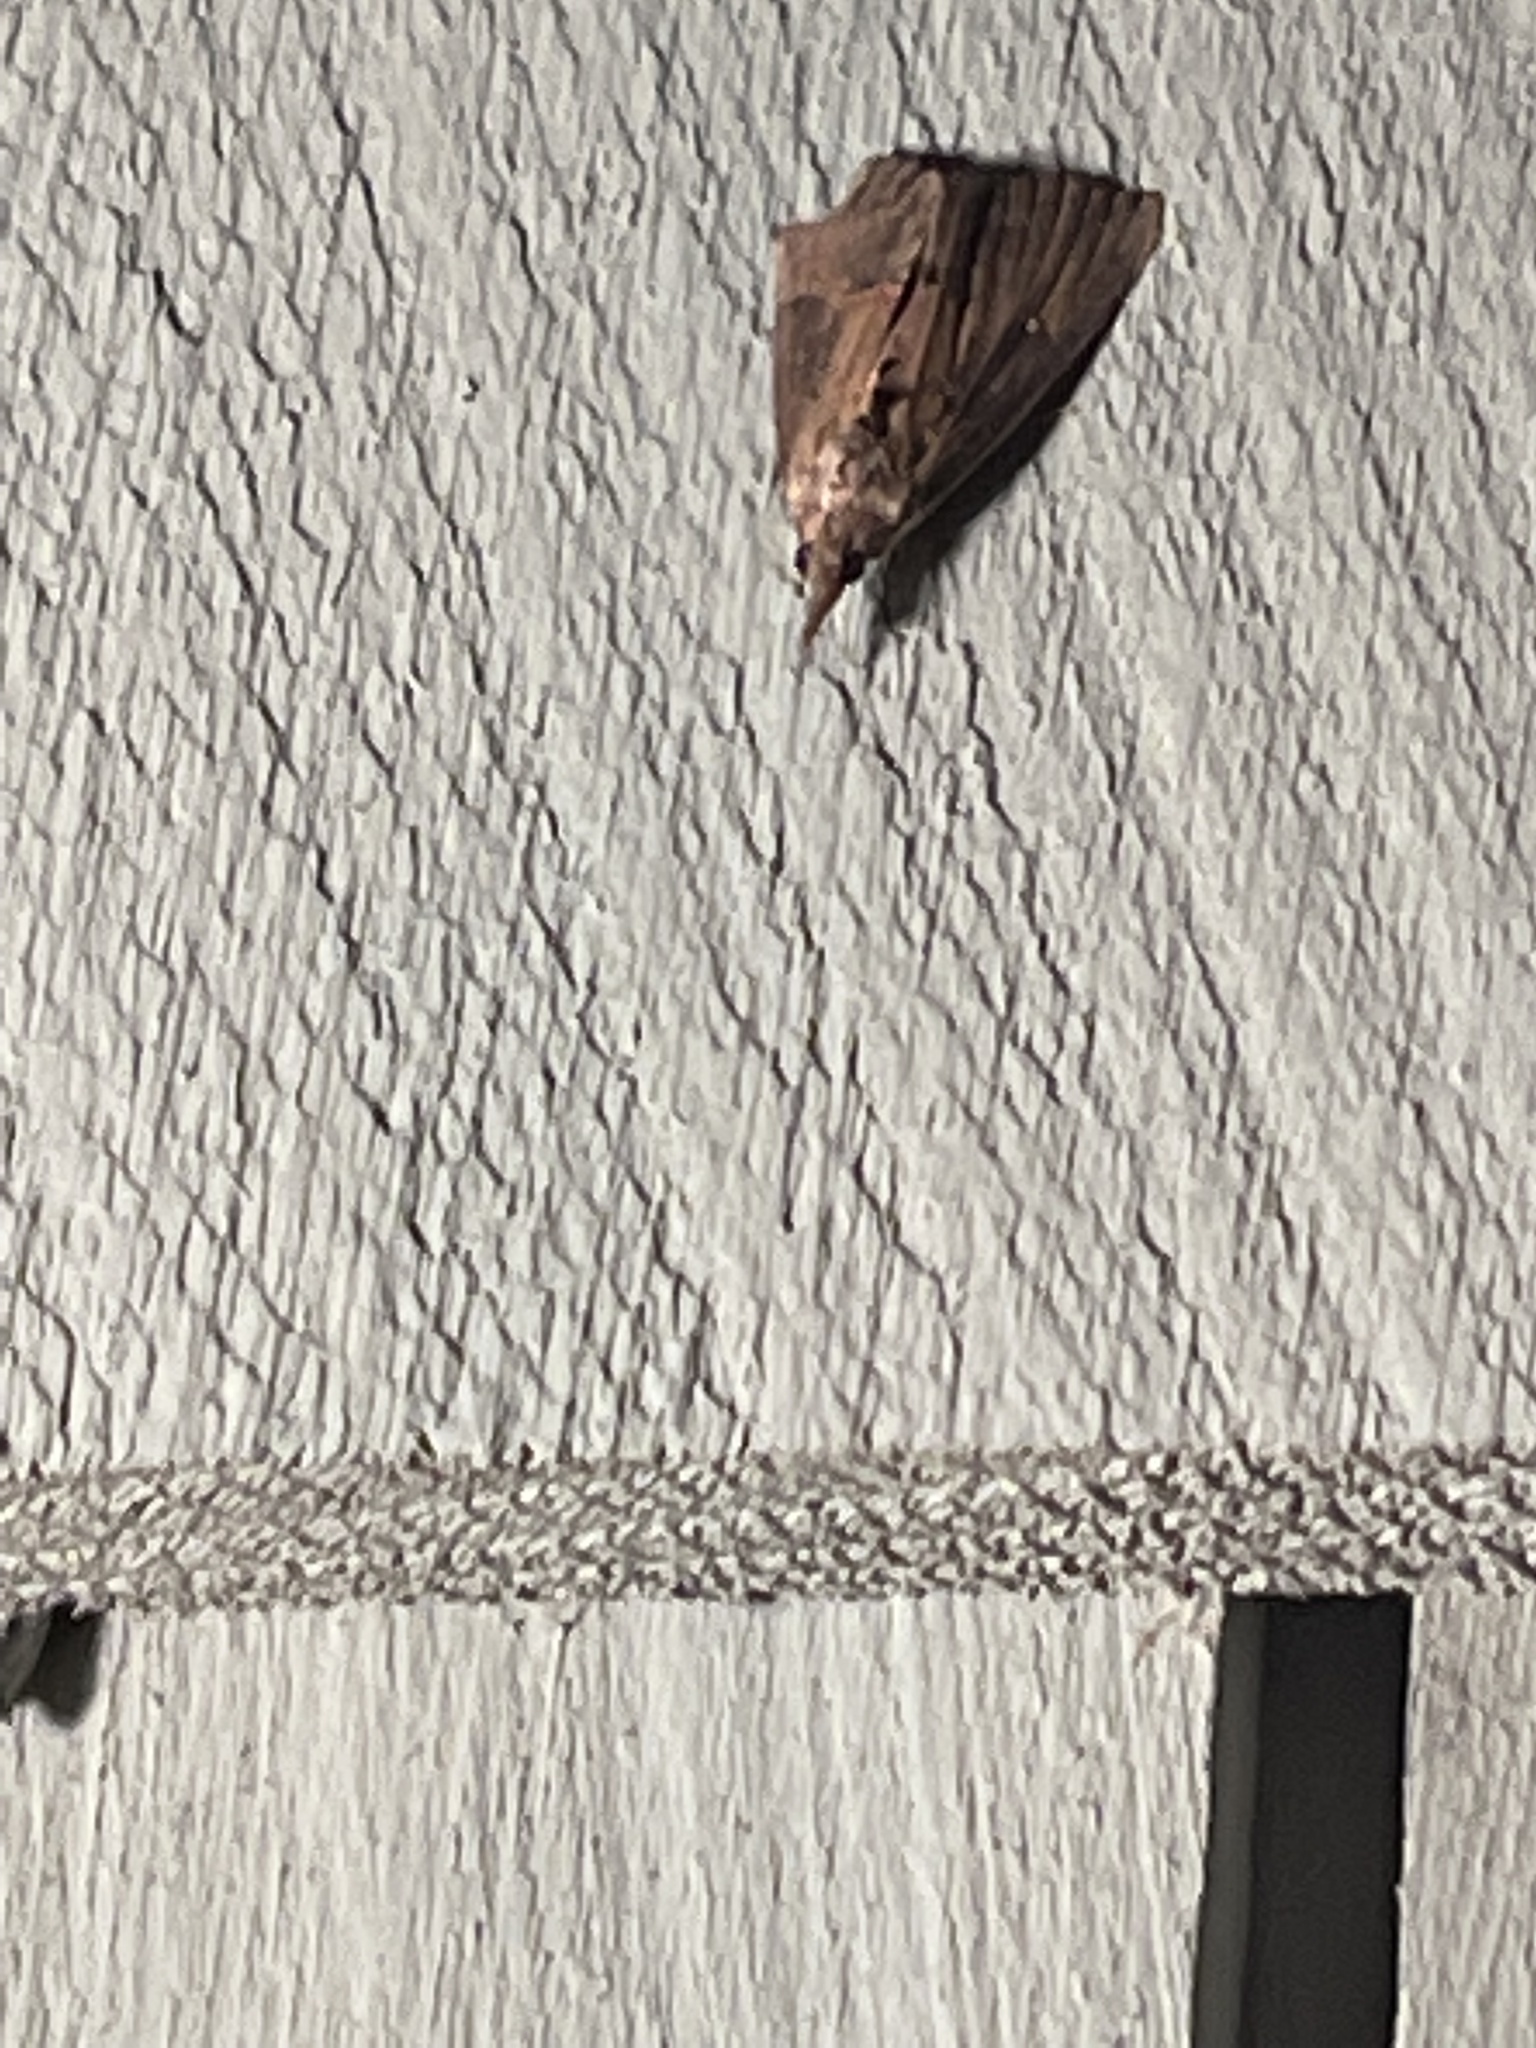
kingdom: Animalia
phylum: Arthropoda
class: Insecta
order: Lepidoptera
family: Erebidae
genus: Hypena
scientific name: Hypena scabra
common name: Green cloverworm
